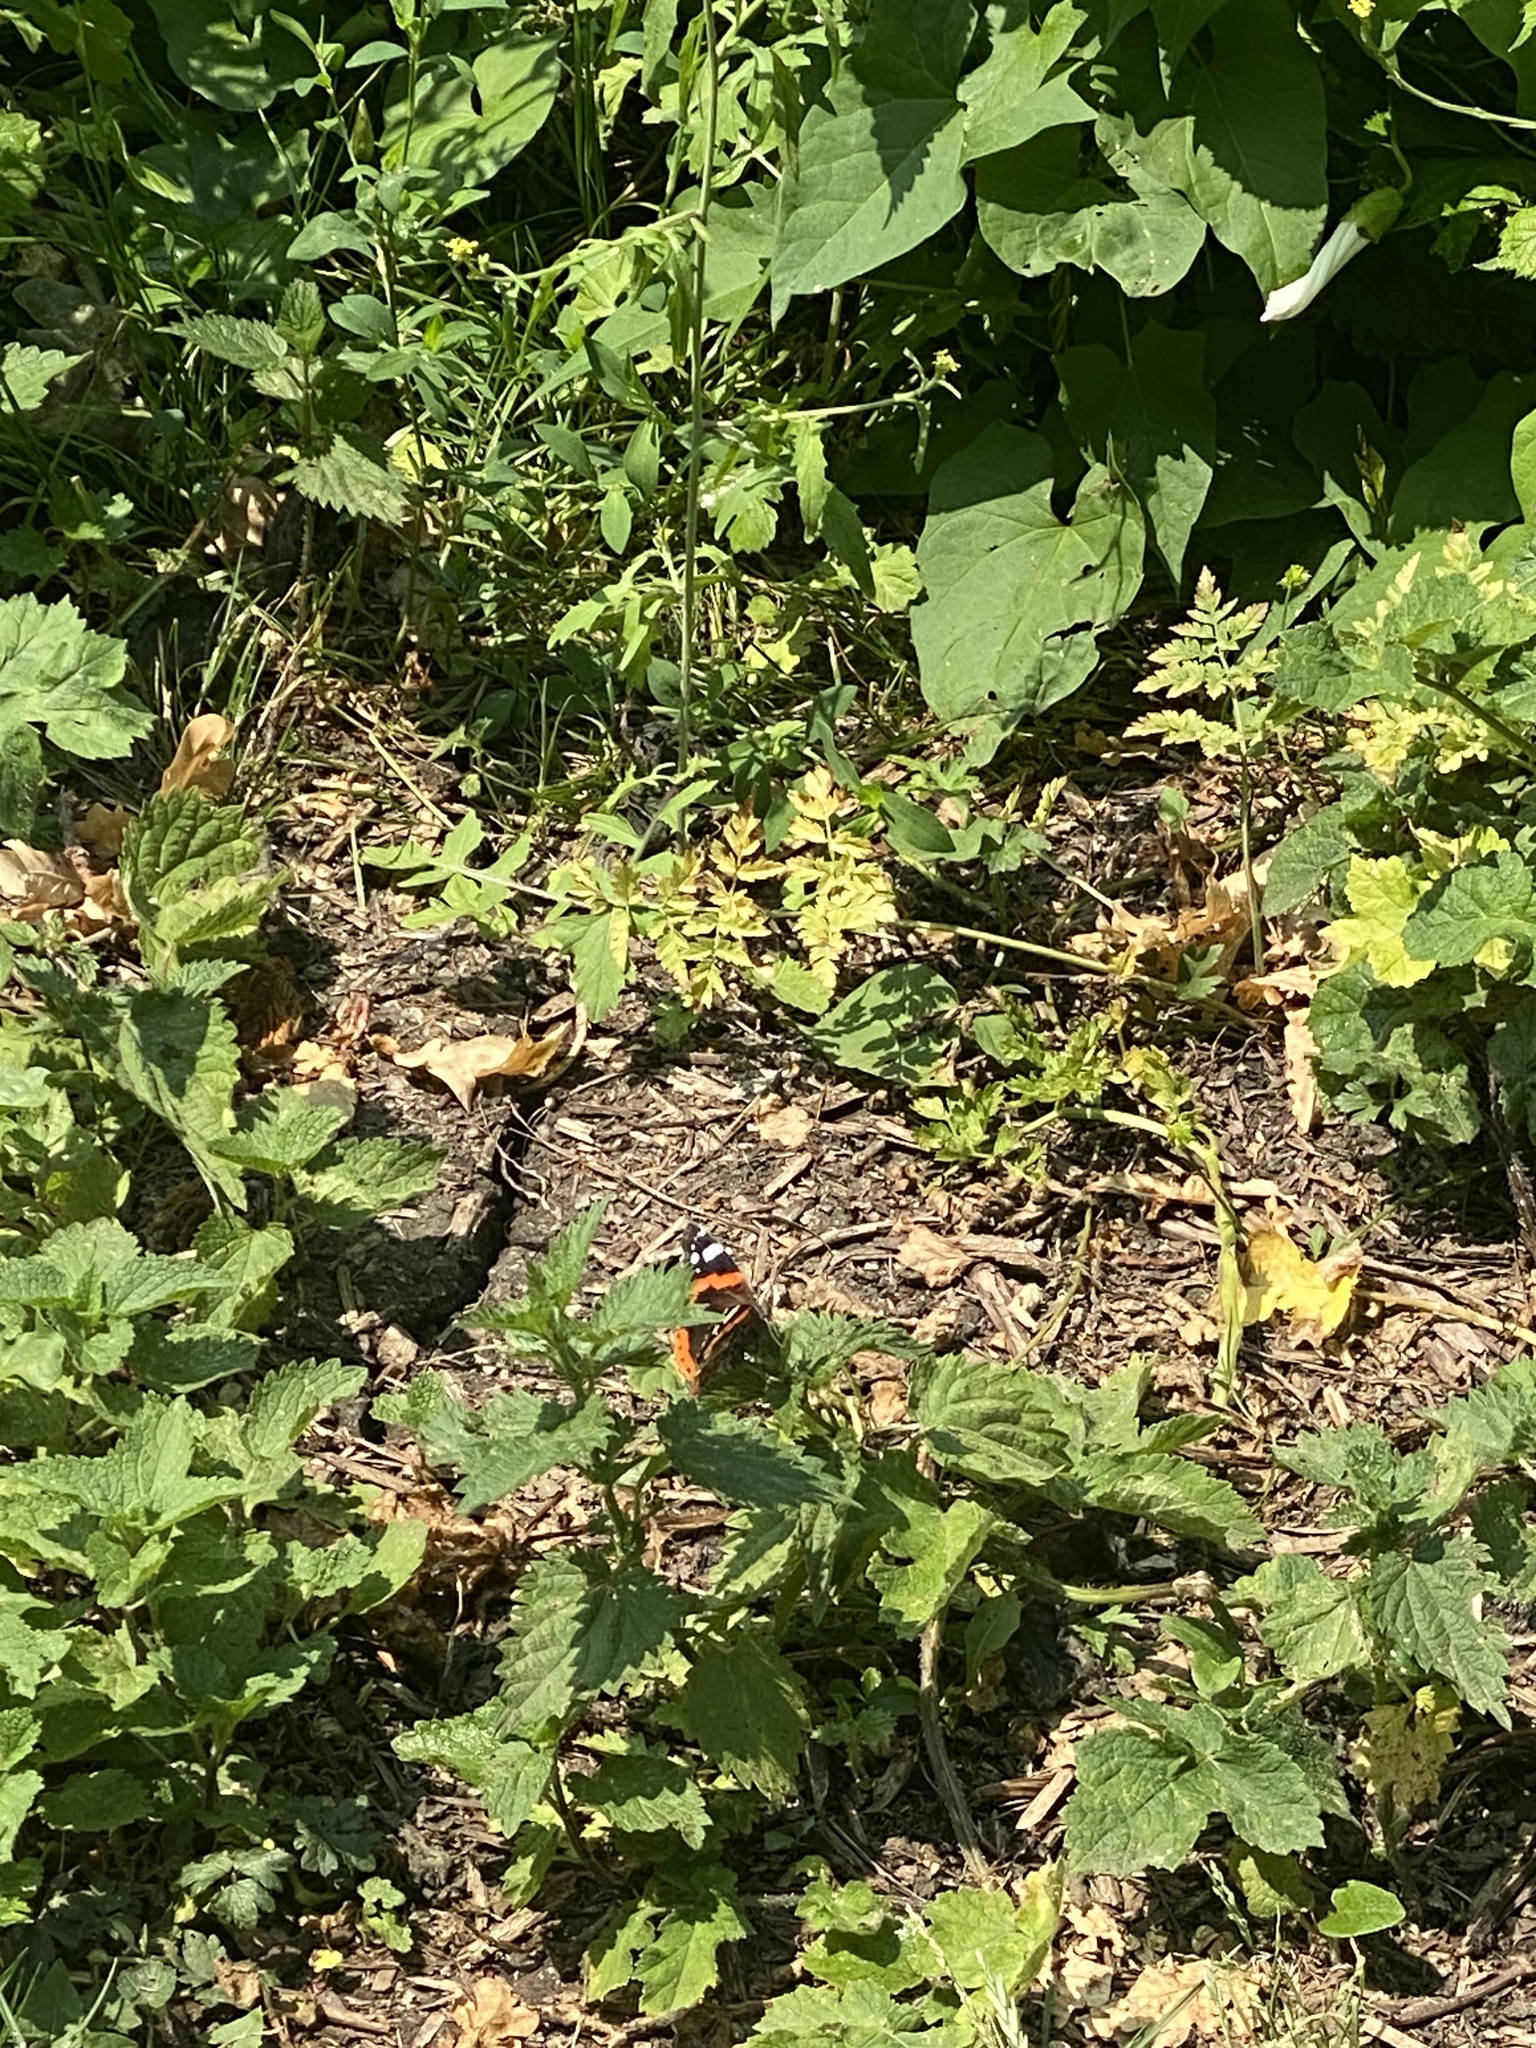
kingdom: Animalia
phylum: Arthropoda
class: Insecta
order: Lepidoptera
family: Nymphalidae
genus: Vanessa
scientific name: Vanessa atalanta
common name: Red admiral
